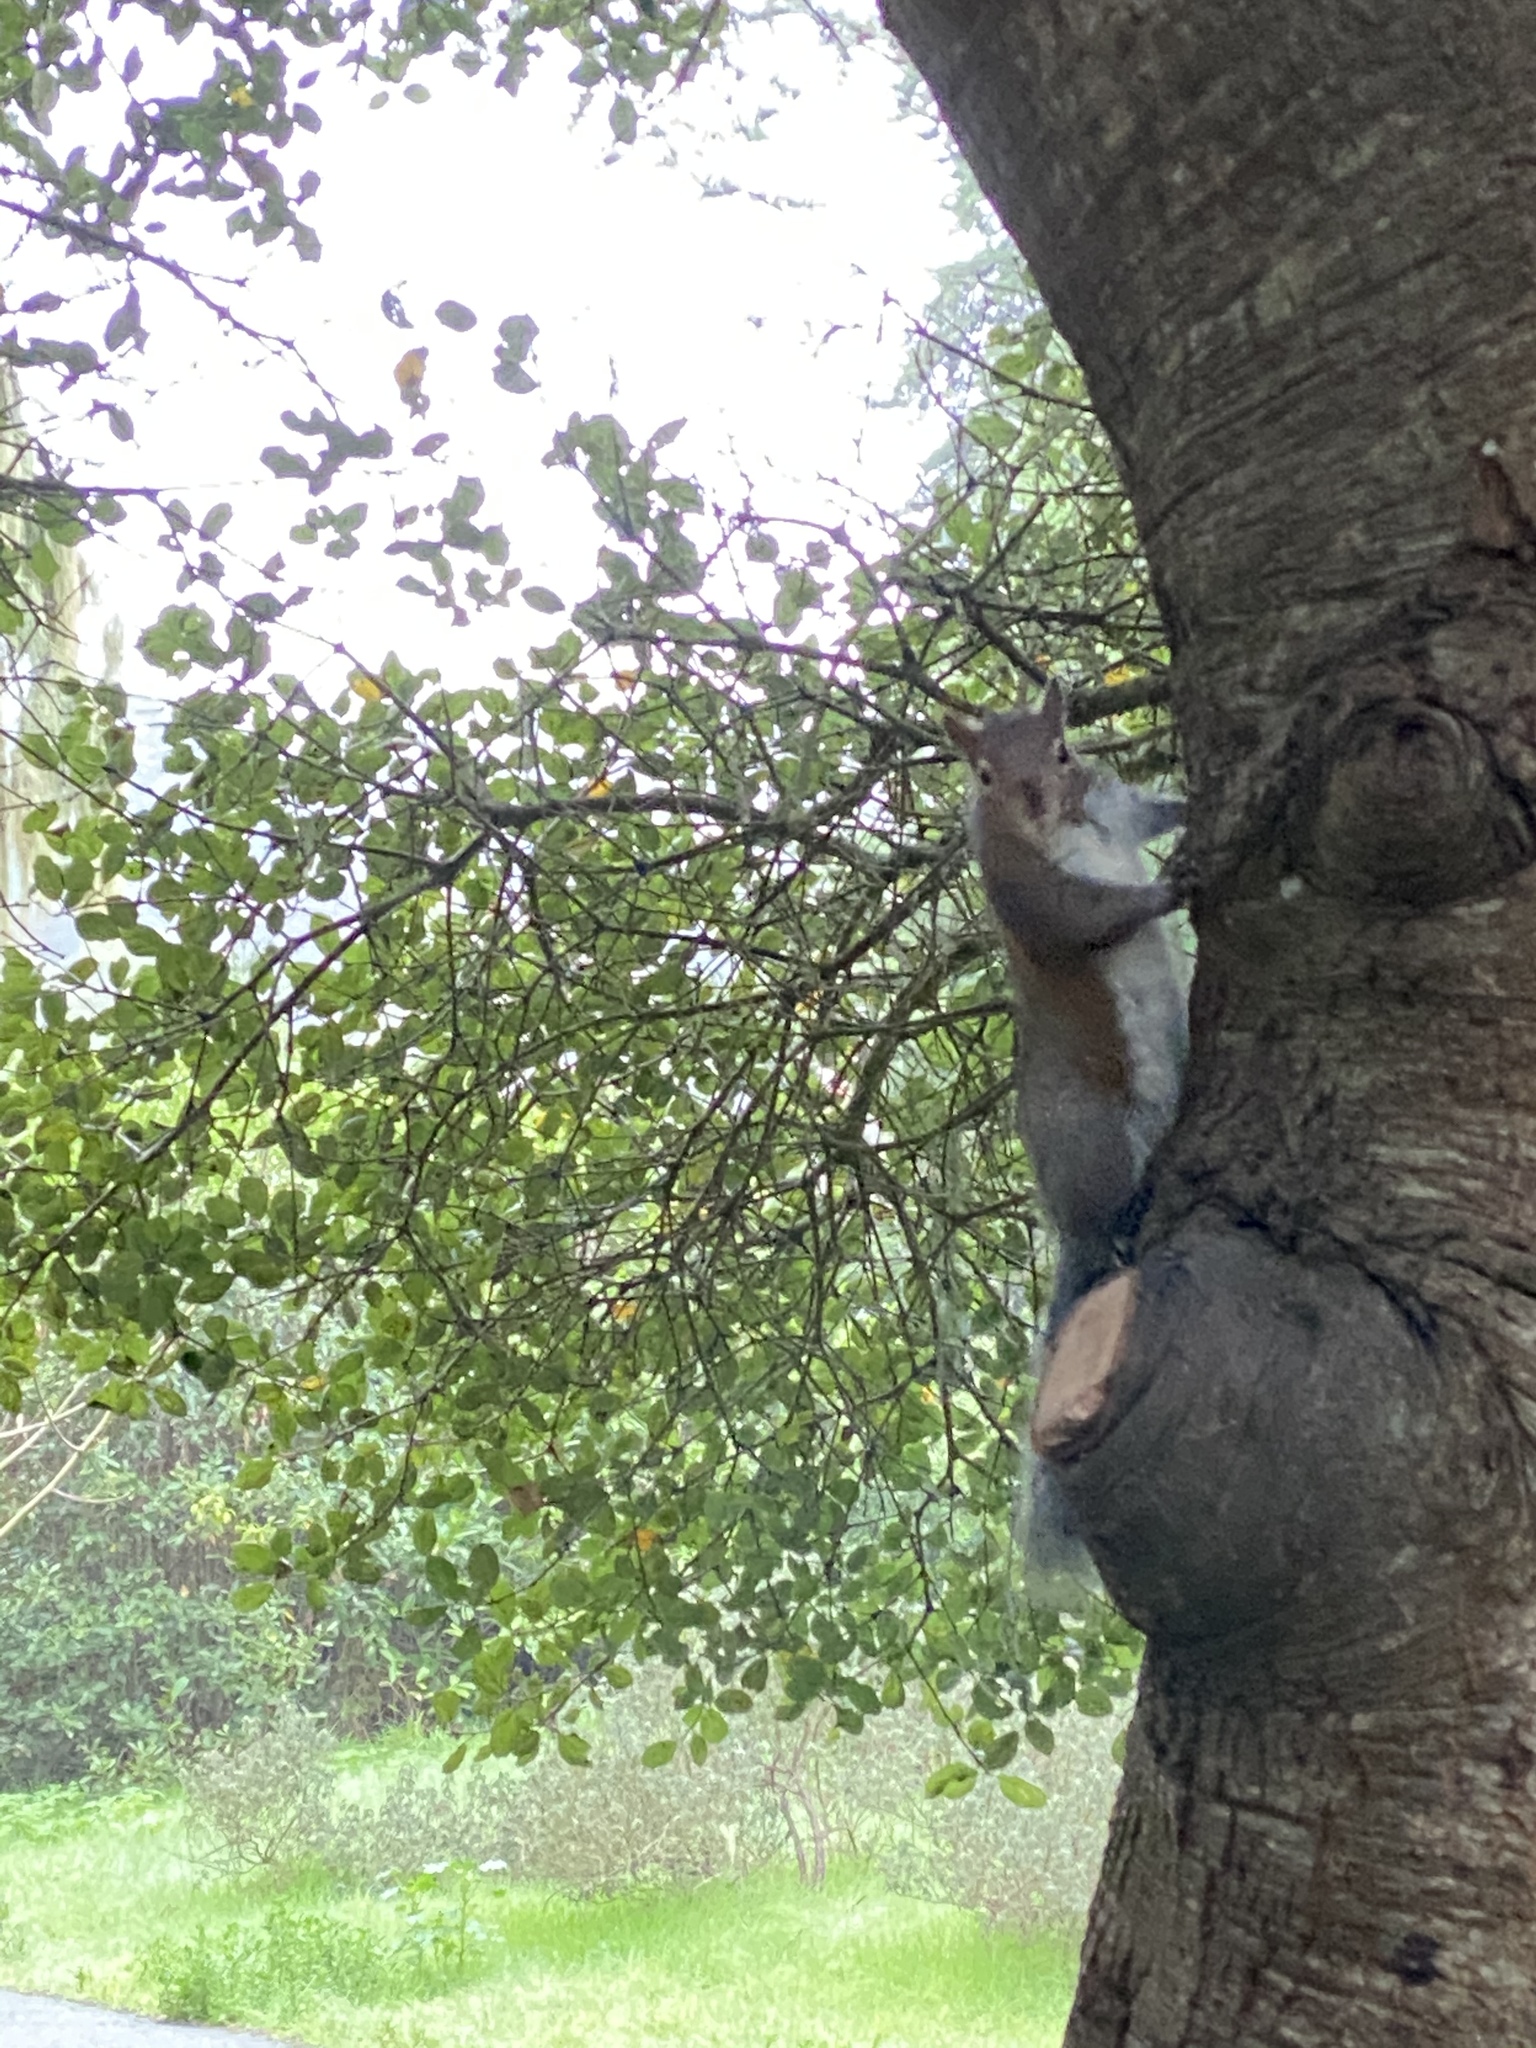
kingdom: Animalia
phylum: Chordata
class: Mammalia
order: Rodentia
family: Sciuridae
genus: Sciurus
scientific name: Sciurus carolinensis
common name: Eastern gray squirrel
